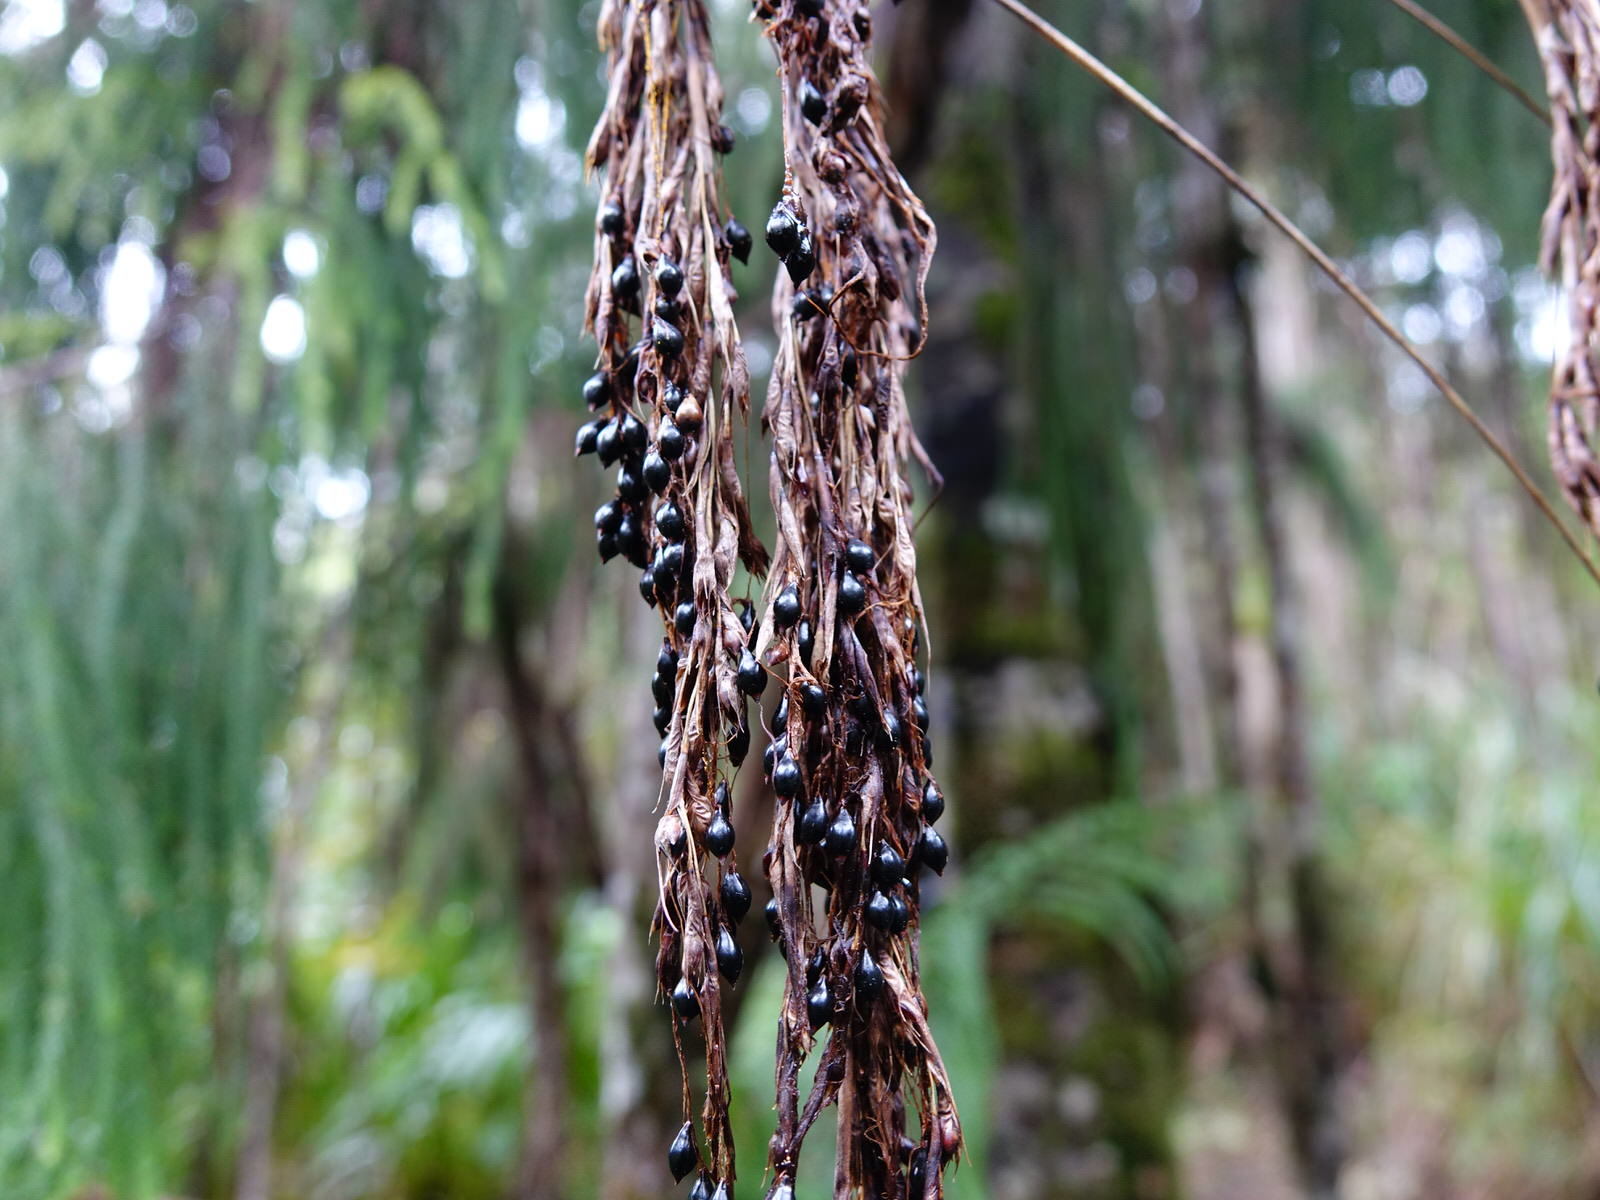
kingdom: Plantae
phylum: Tracheophyta
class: Liliopsida
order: Poales
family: Cyperaceae
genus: Gahnia
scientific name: Gahnia xanthocarpa
